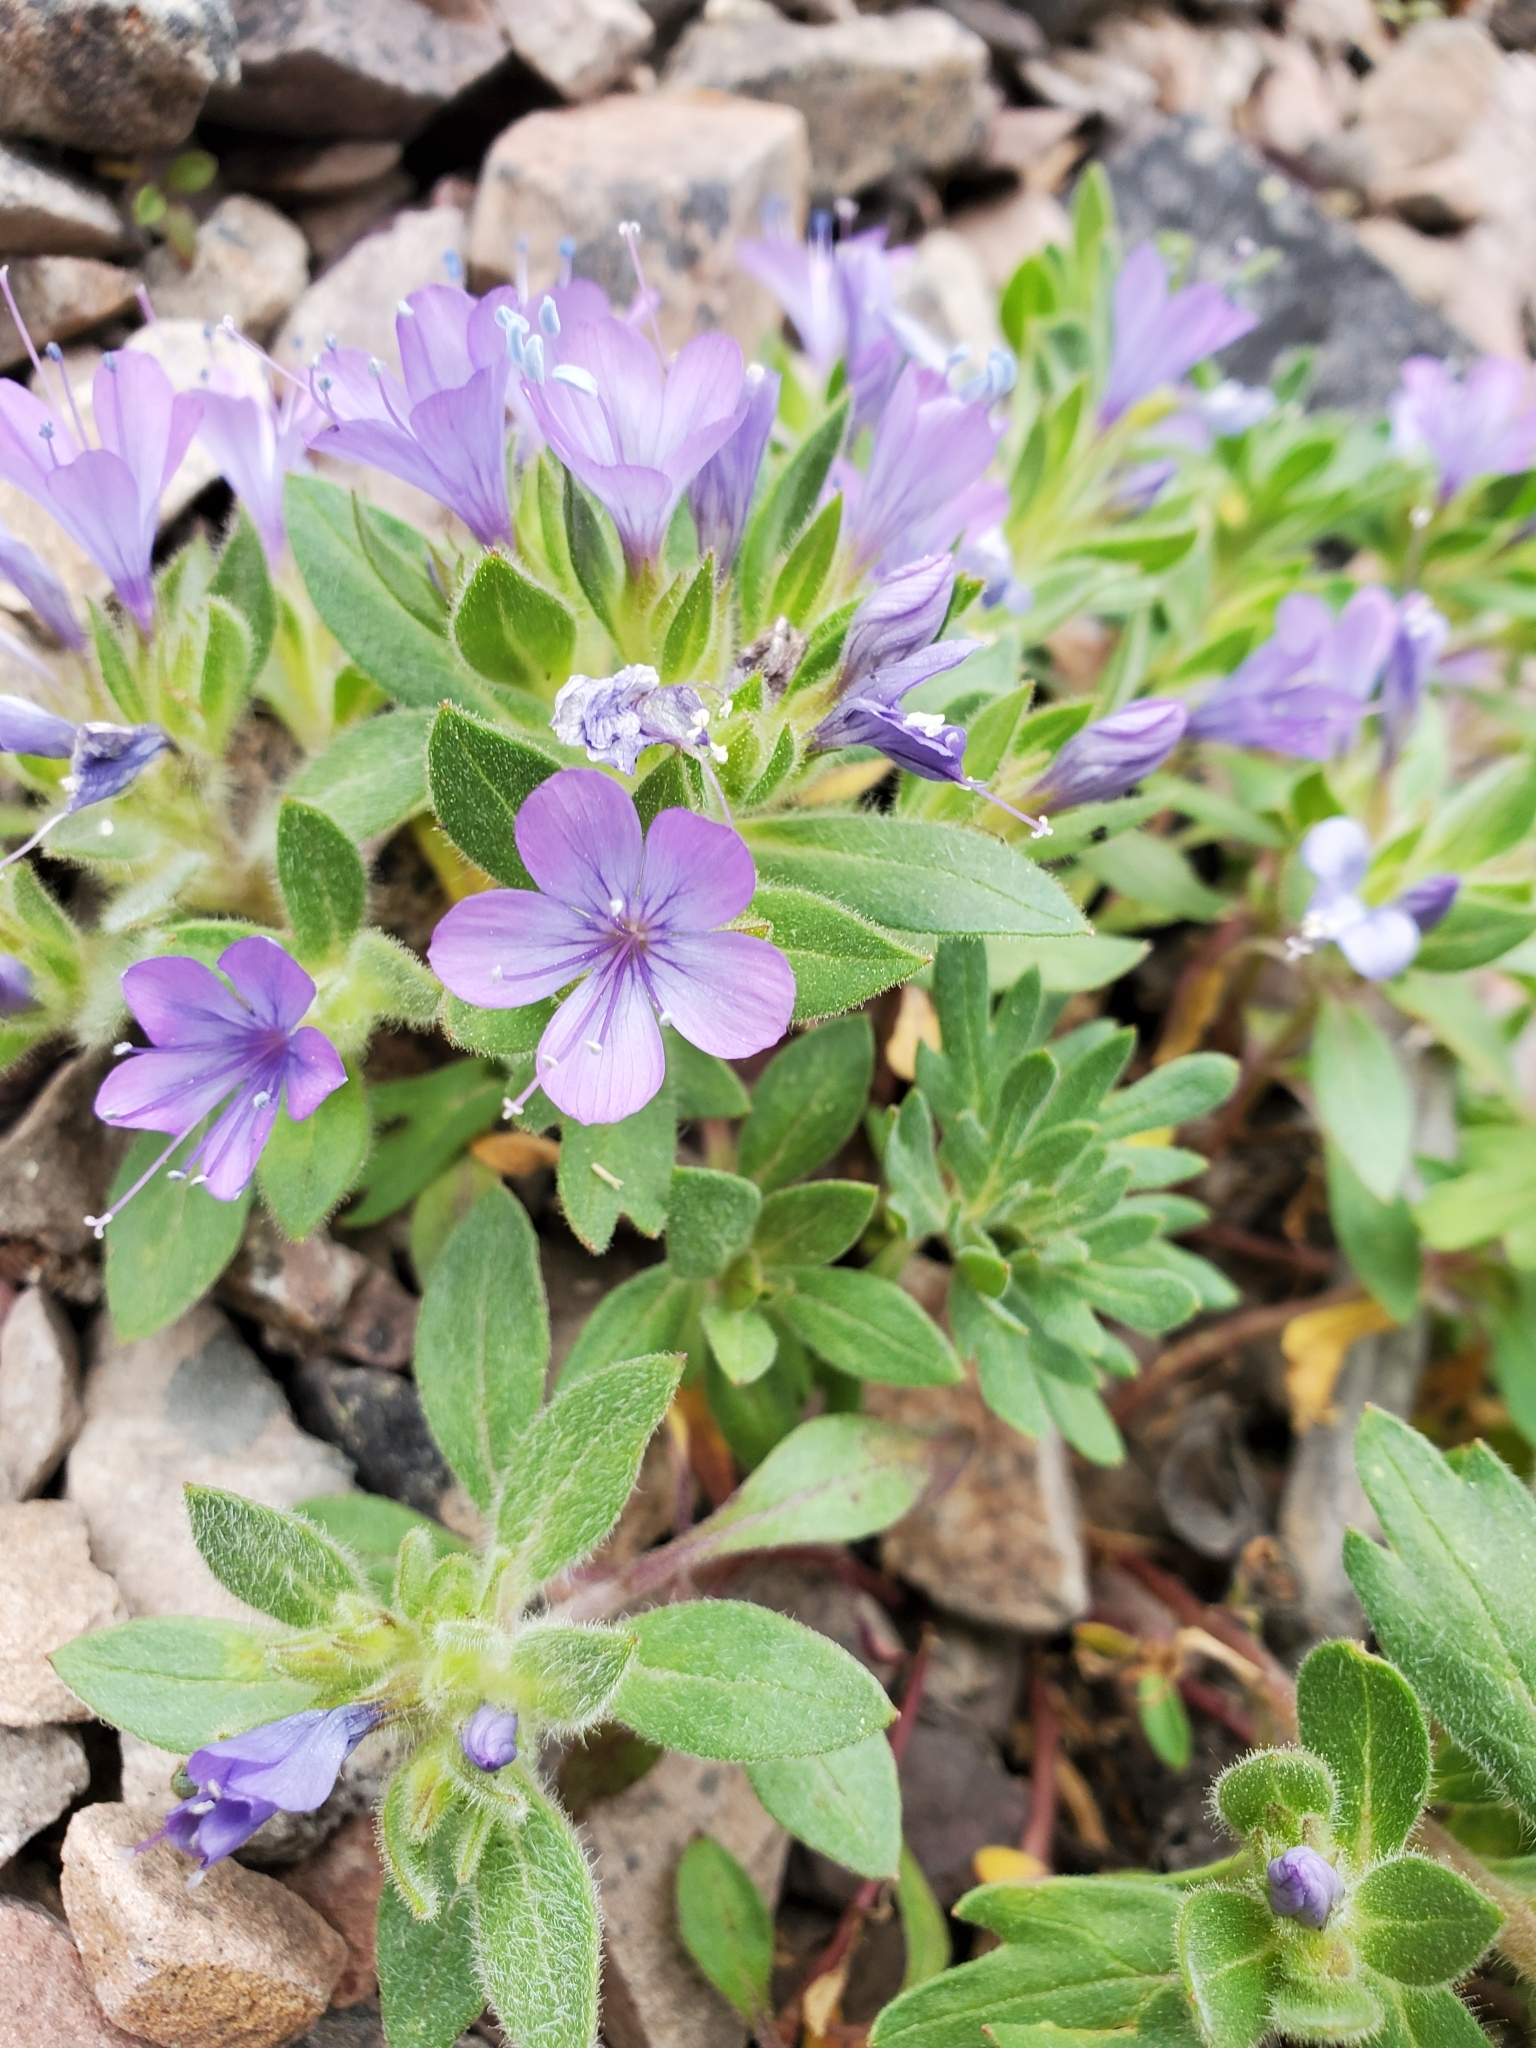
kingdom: Plantae
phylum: Tracheophyta
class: Magnoliopsida
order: Ericales
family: Polemoniaceae
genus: Collomia
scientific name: Collomia debilis
